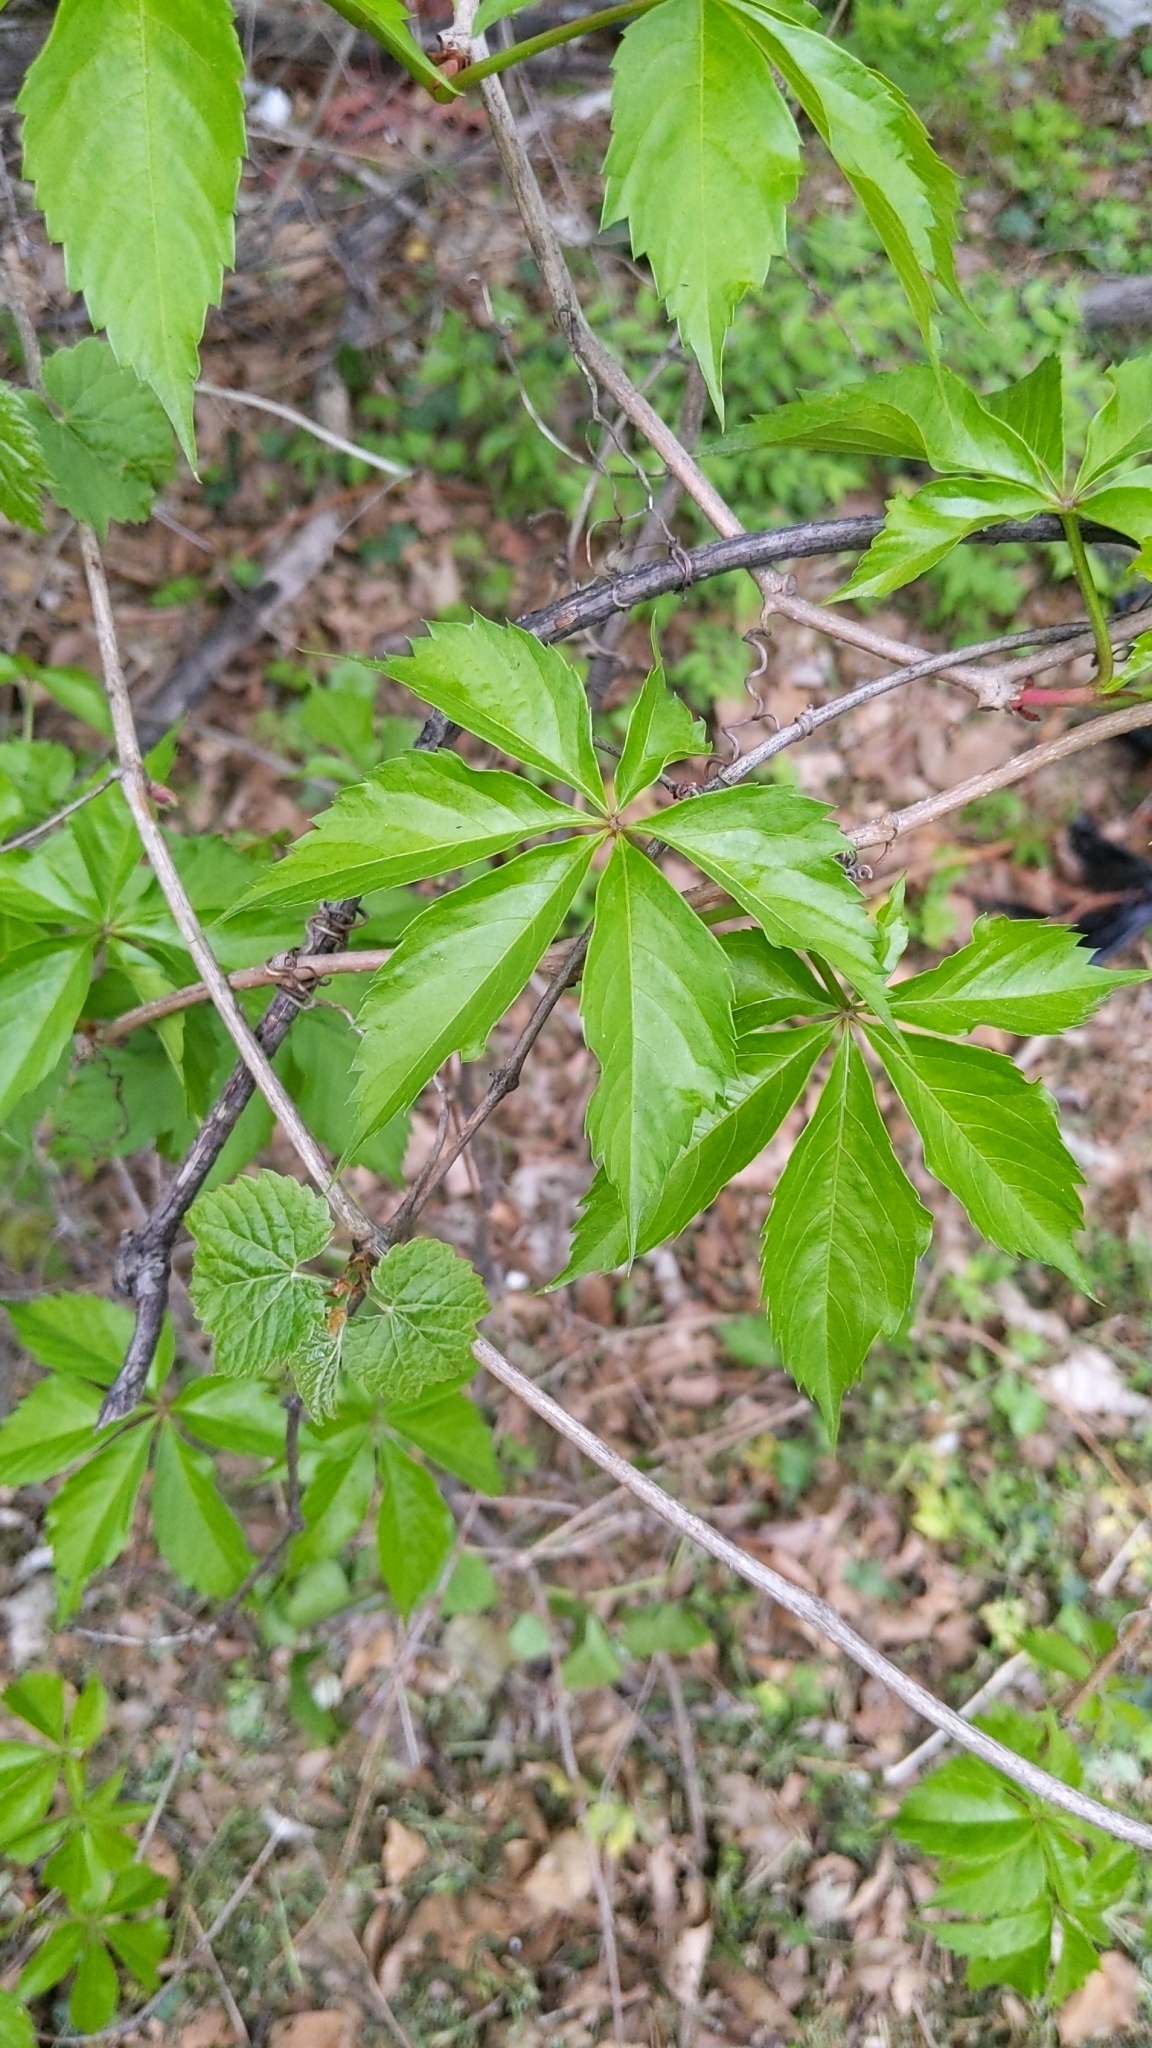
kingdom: Plantae
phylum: Tracheophyta
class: Magnoliopsida
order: Vitales
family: Vitaceae
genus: Parthenocissus
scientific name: Parthenocissus quinquefolia
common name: Virginia-creeper
